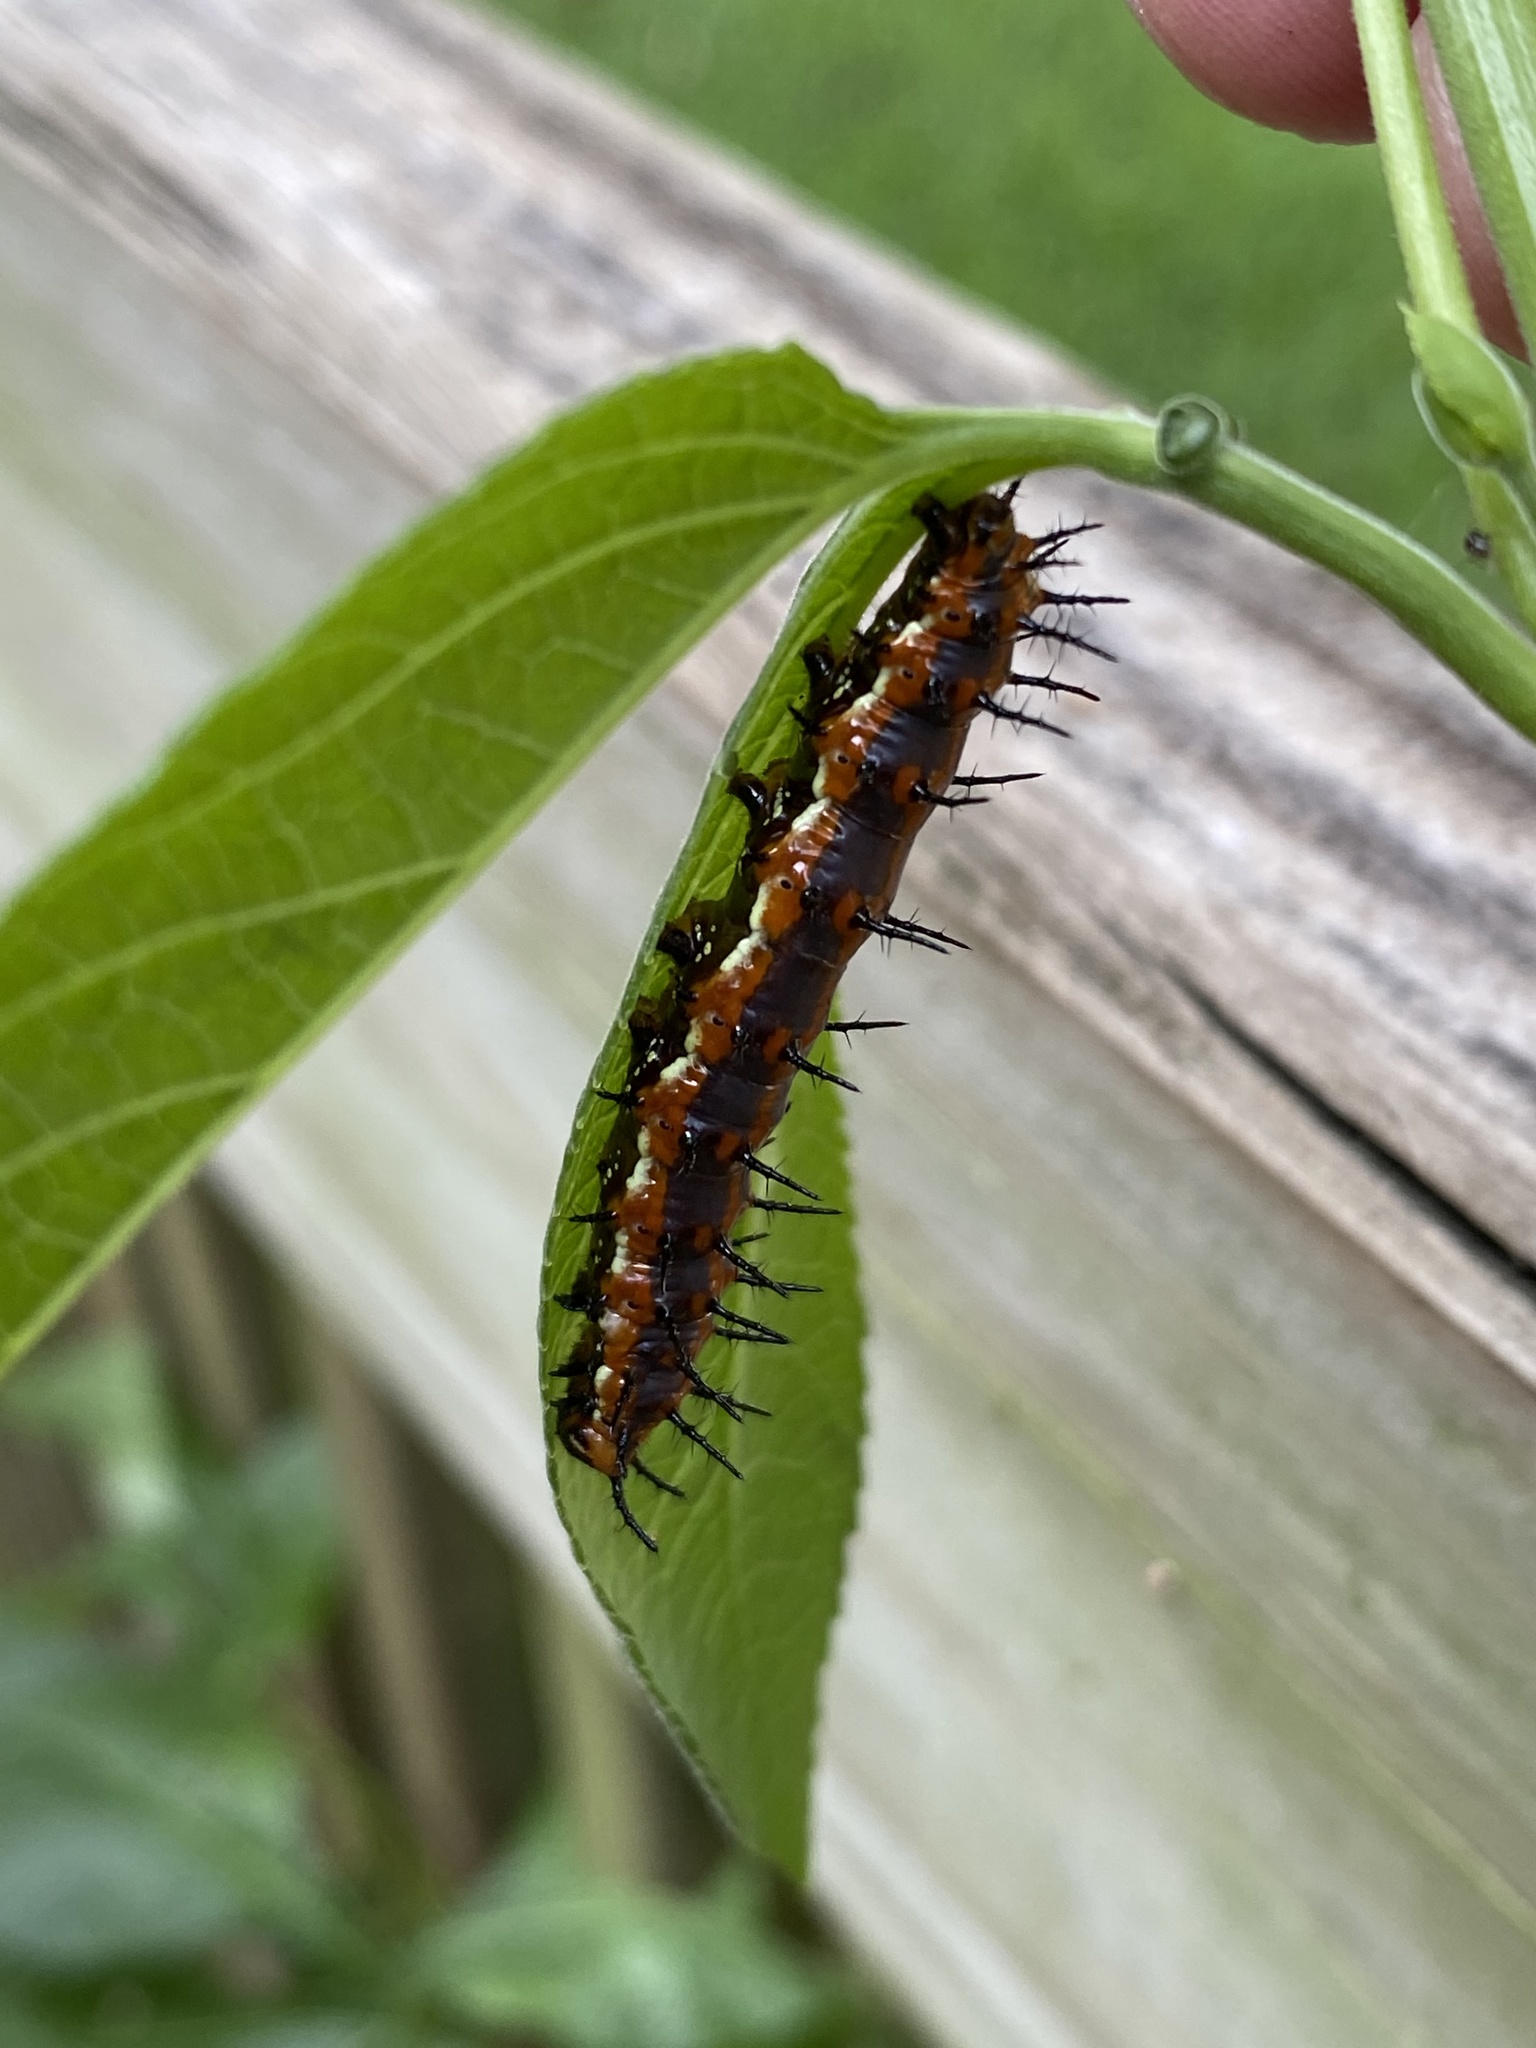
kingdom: Animalia
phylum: Arthropoda
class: Insecta
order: Lepidoptera
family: Nymphalidae
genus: Dione
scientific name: Dione vanillae
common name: Gulf fritillary
